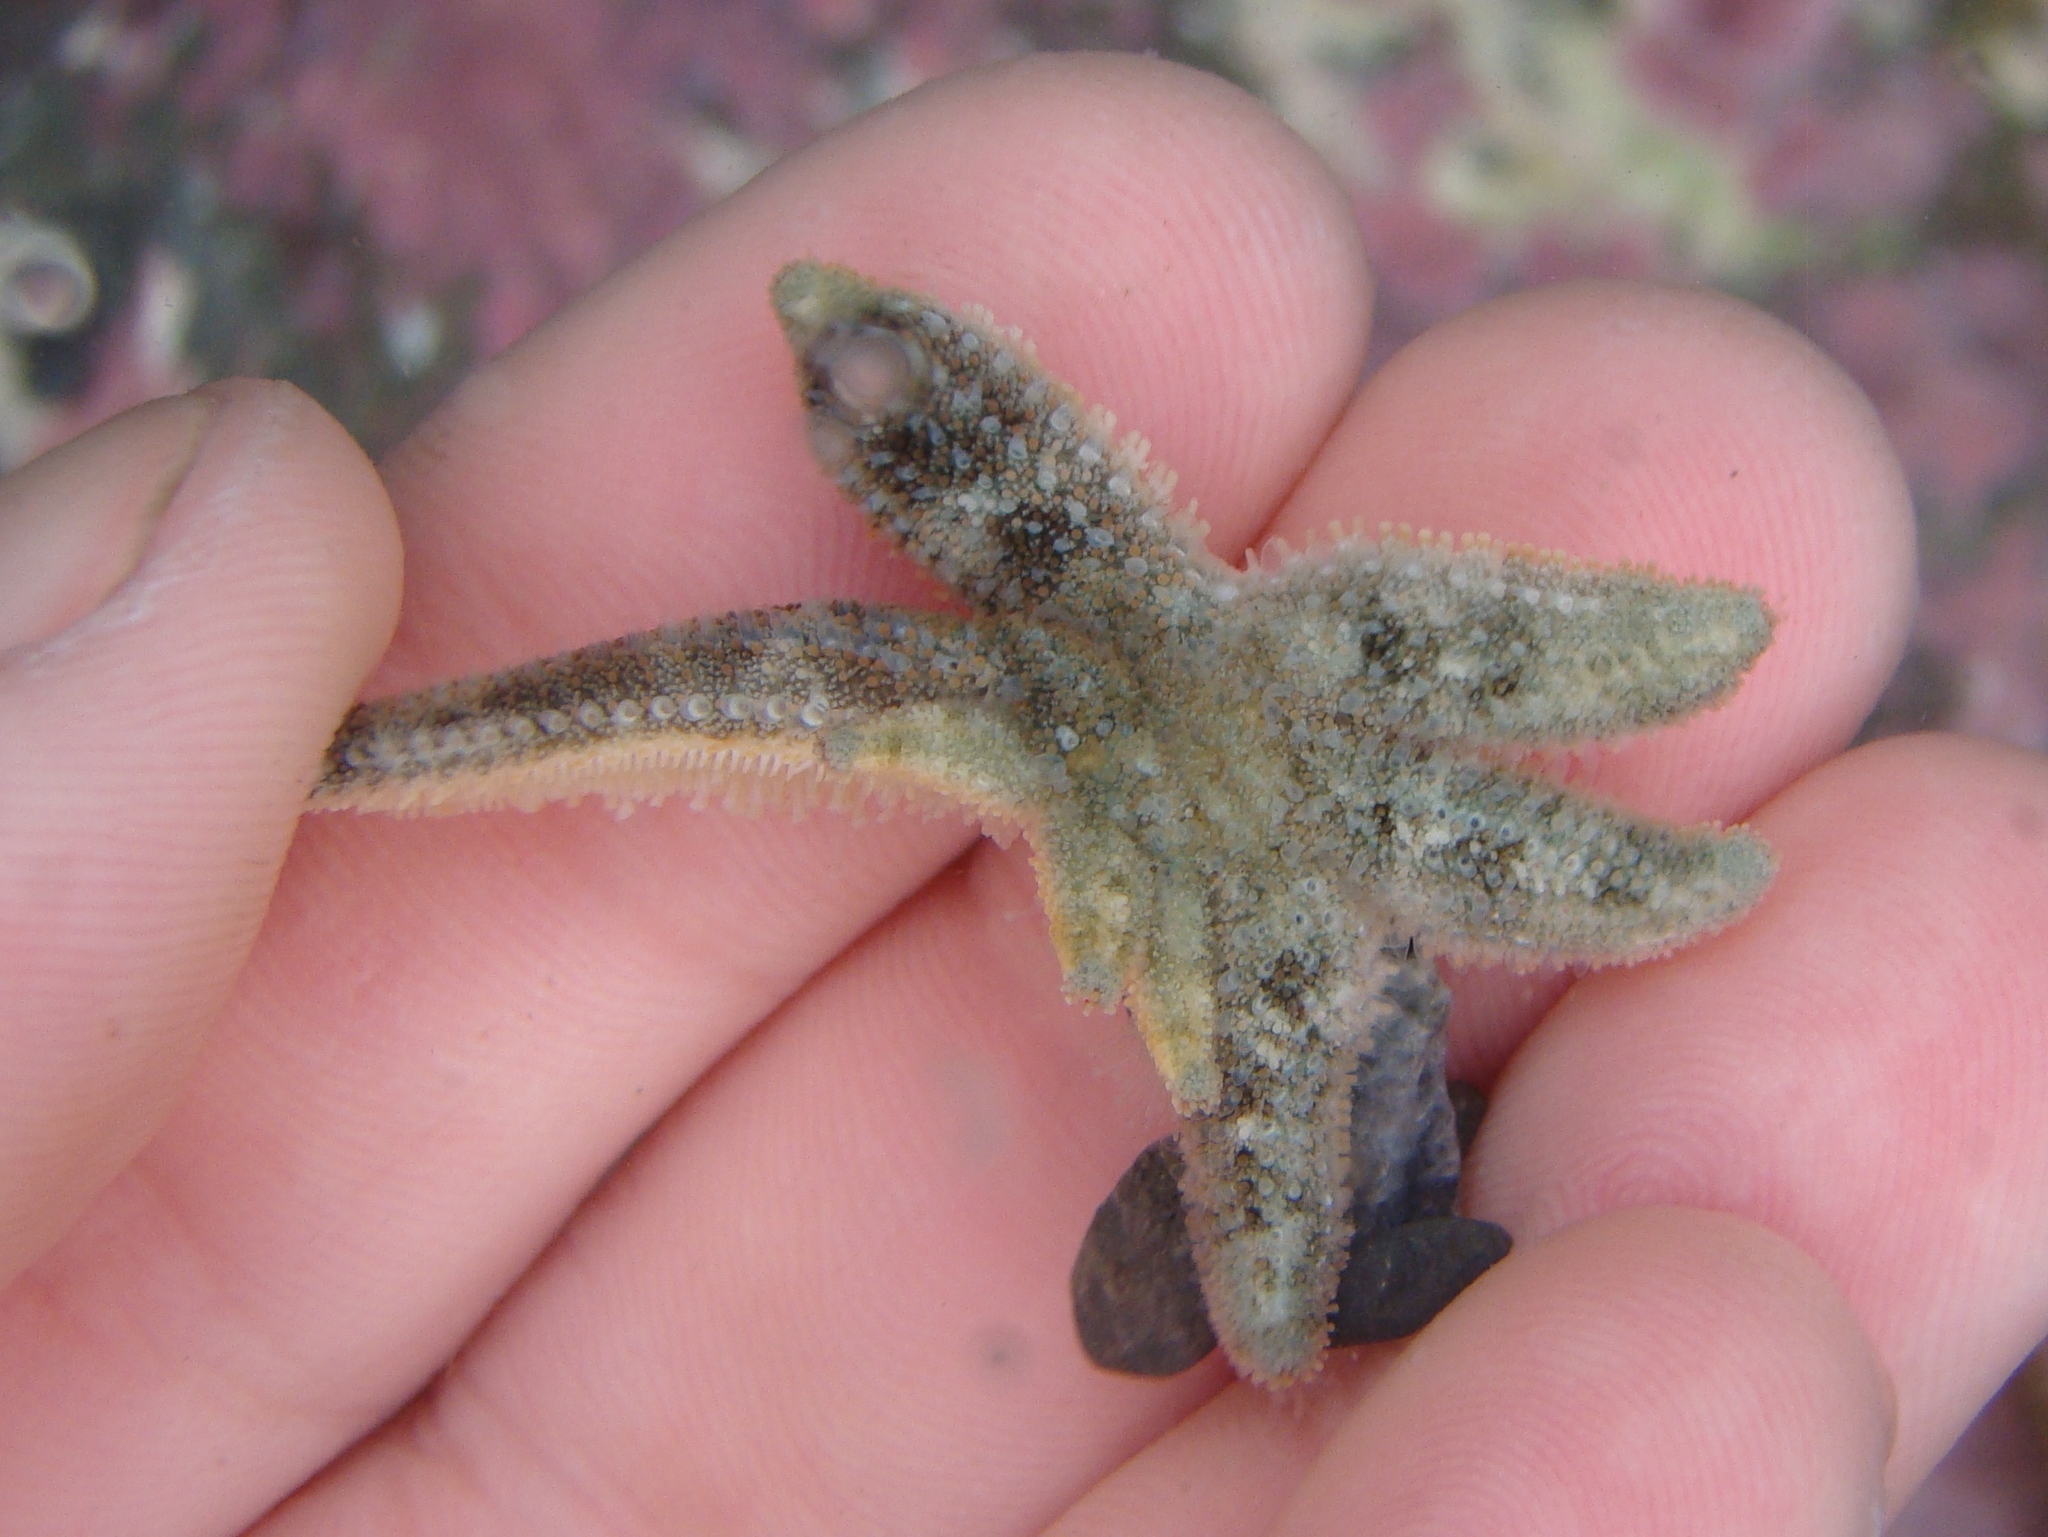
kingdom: Animalia
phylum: Echinodermata
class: Asteroidea
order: Forcipulatida
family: Stichasteridae
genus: Allostichaster
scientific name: Allostichaster polyplax
